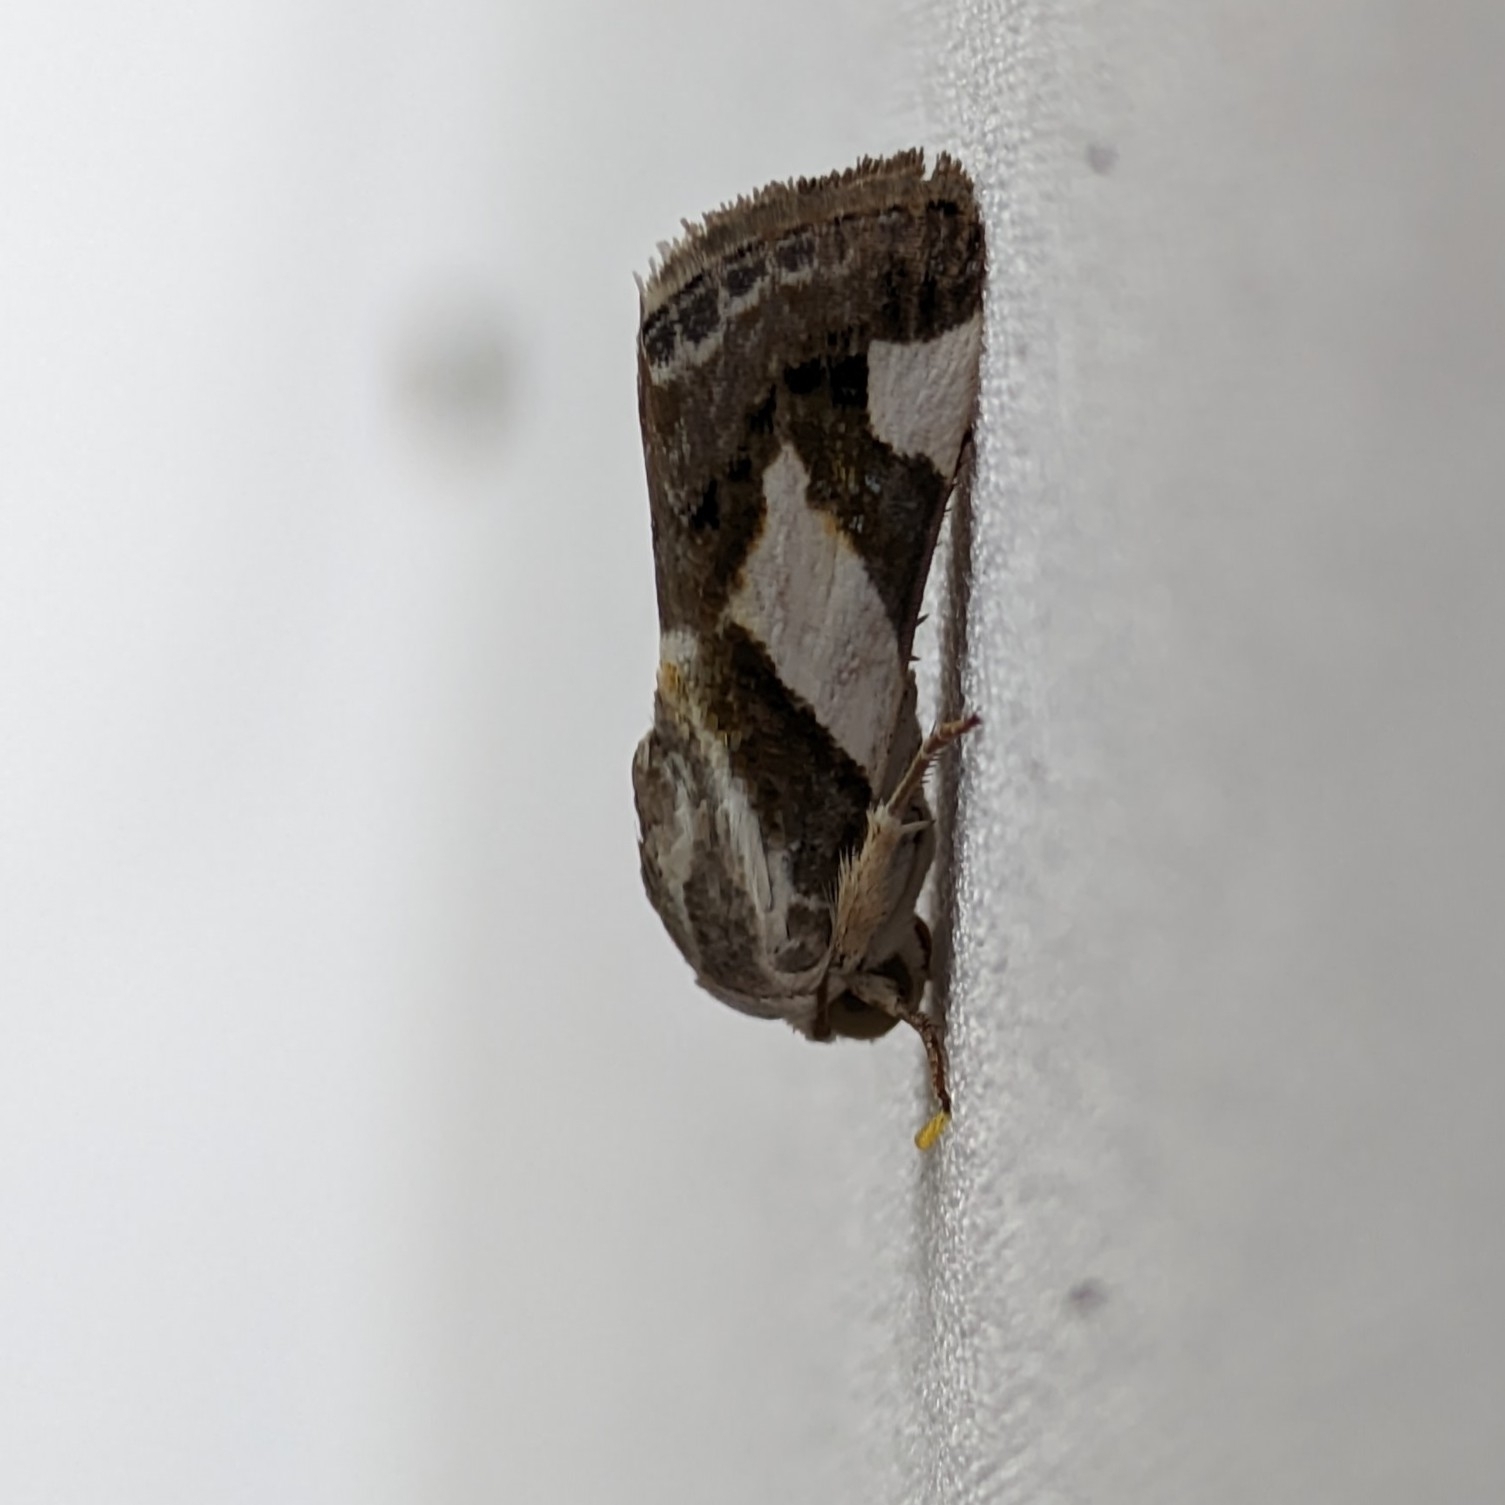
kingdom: Animalia
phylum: Arthropoda
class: Insecta
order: Lepidoptera
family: Noctuidae
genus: Acontia
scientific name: Acontia catenula
